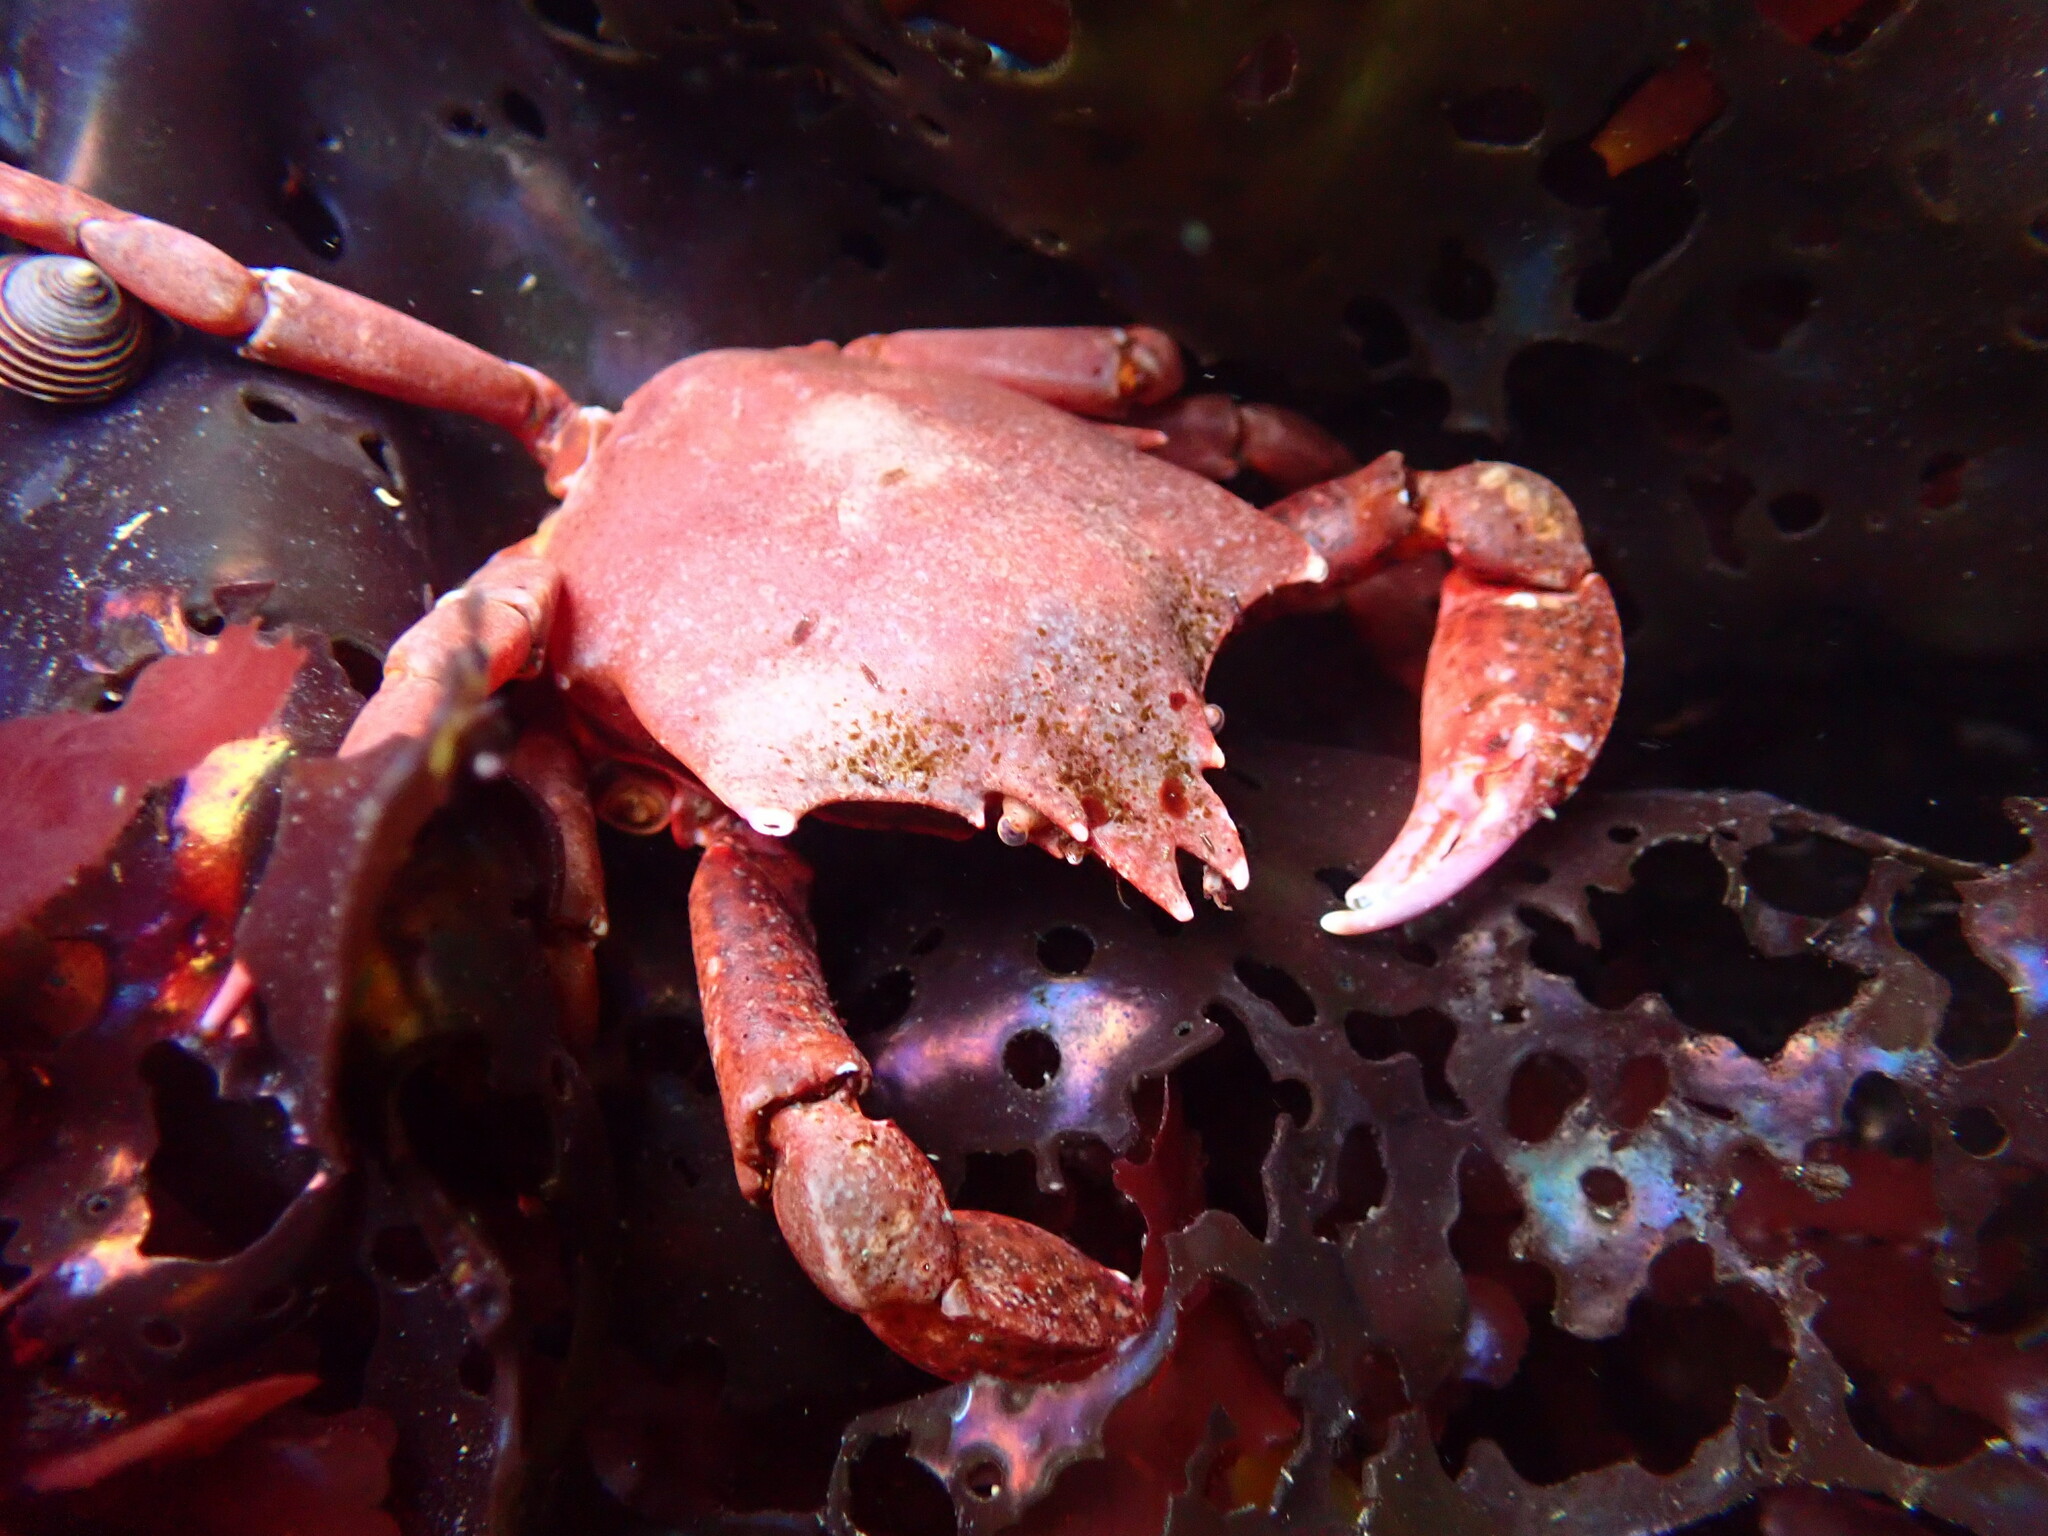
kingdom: Animalia
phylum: Arthropoda
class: Malacostraca
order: Decapoda
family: Epialtidae
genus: Pugettia
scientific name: Pugettia producta
